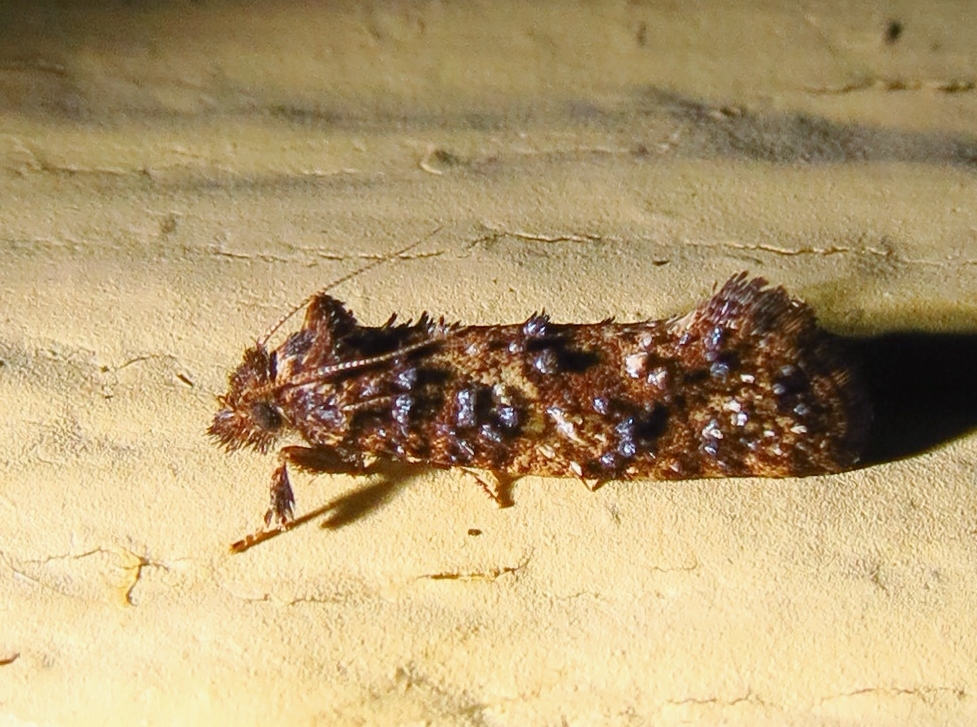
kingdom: Animalia
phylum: Arthropoda
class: Insecta
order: Lepidoptera
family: Tineidae
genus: Acrolophus
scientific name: Acrolophus cressoni
